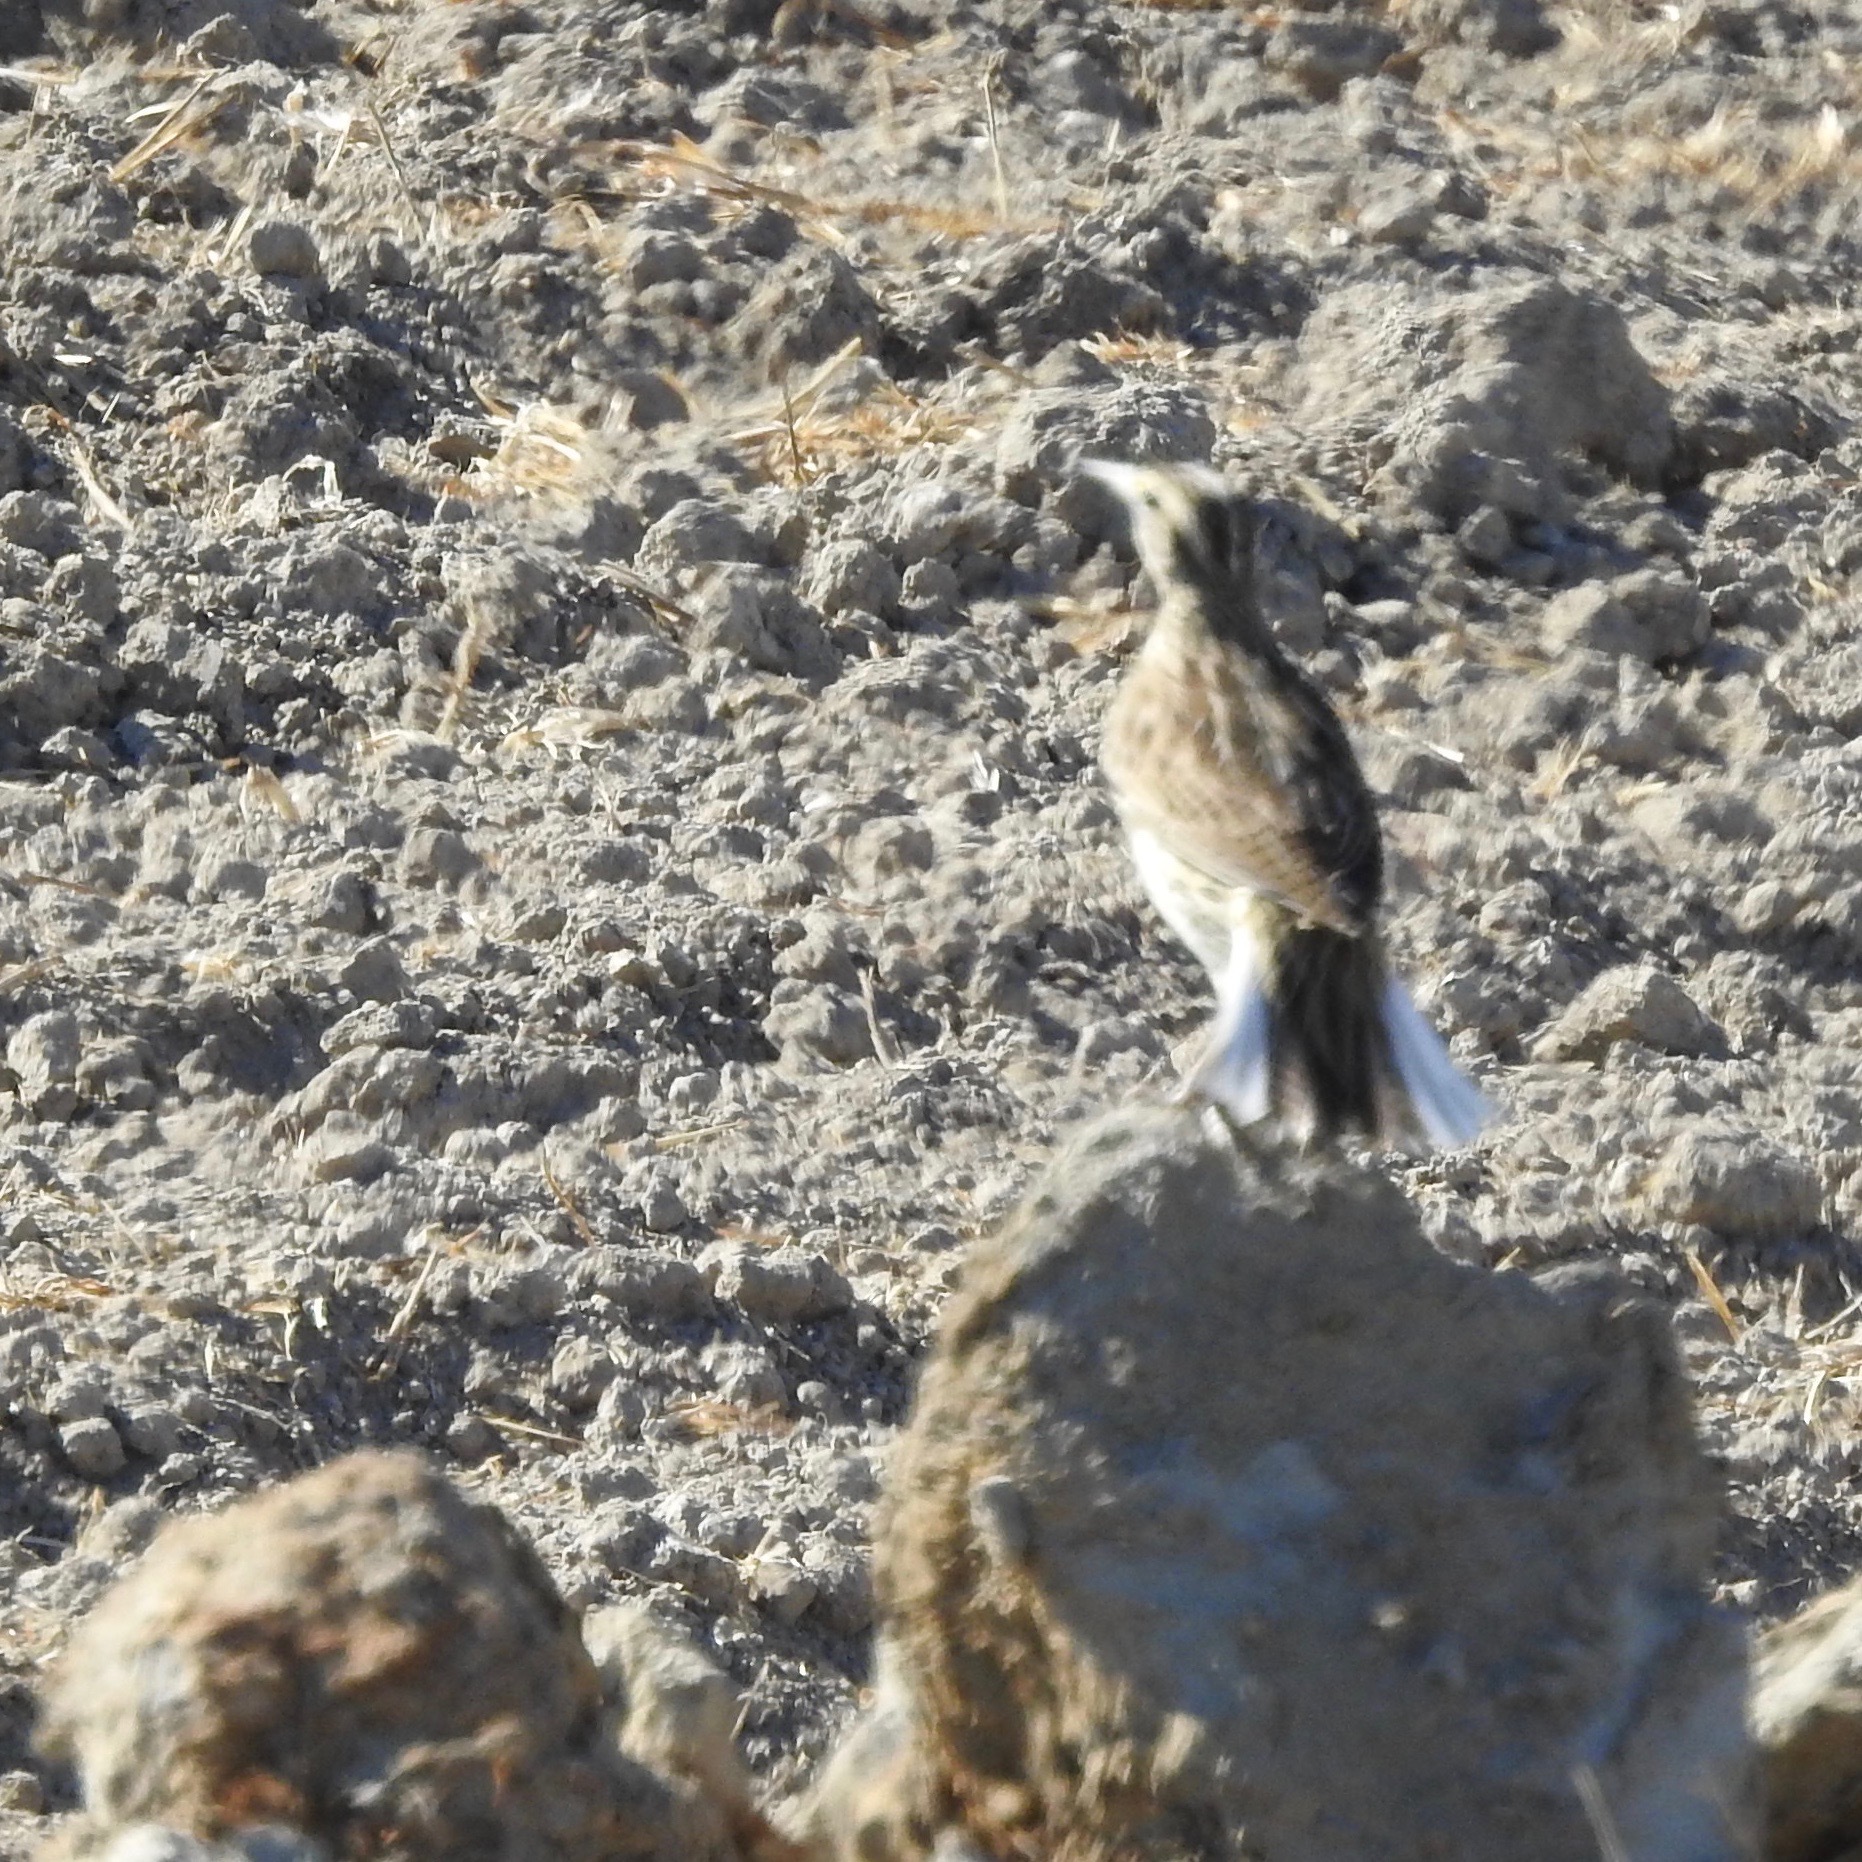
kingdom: Animalia
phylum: Chordata
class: Aves
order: Passeriformes
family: Icteridae
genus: Sturnella
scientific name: Sturnella neglecta
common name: Western meadowlark
